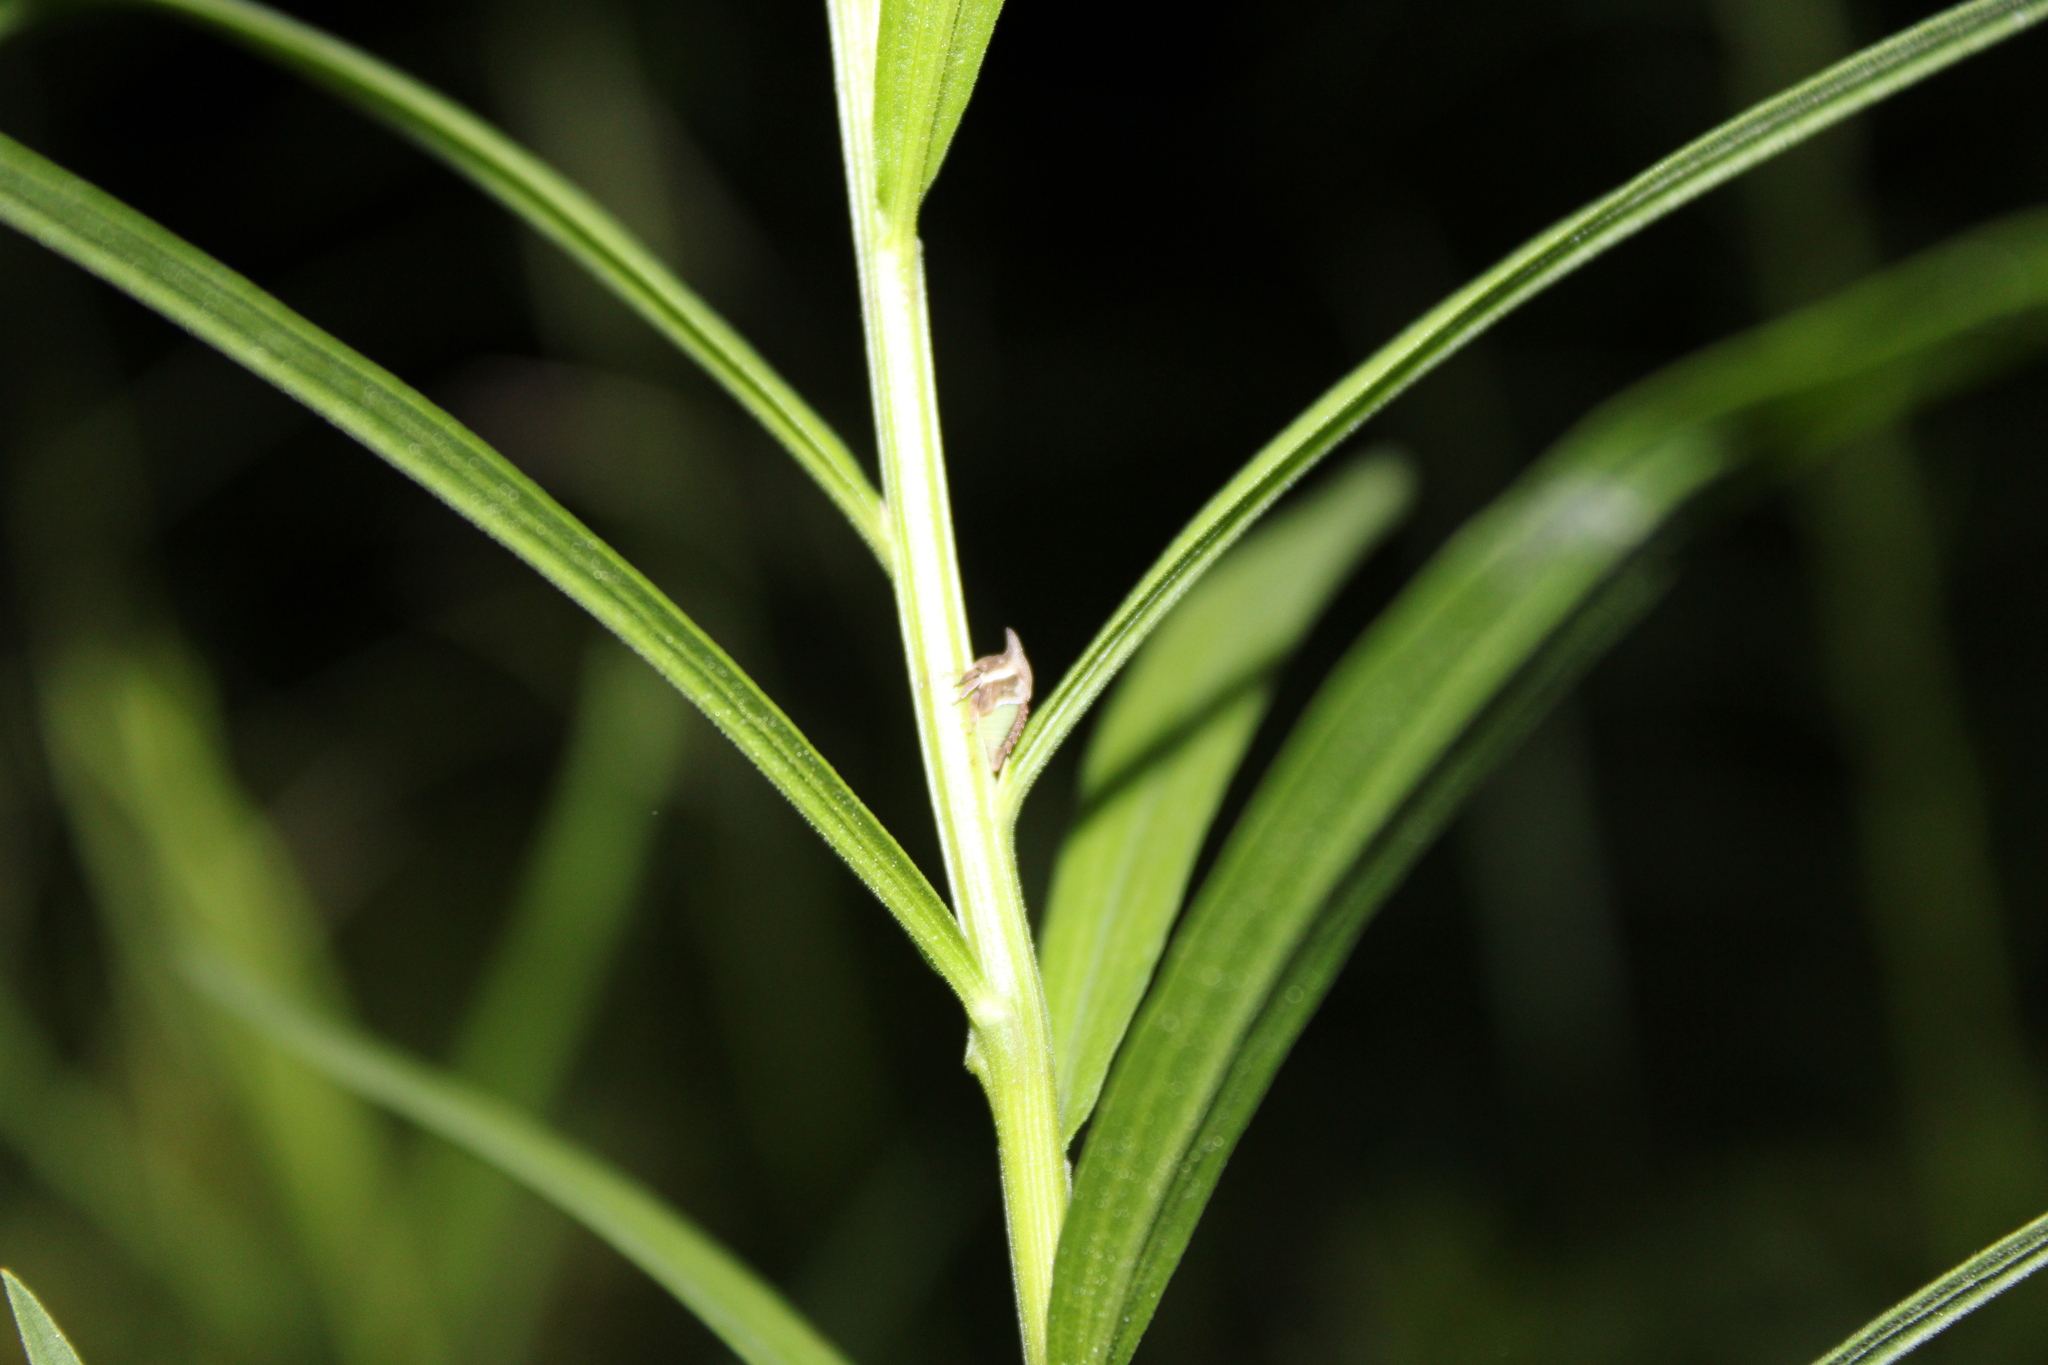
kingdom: Animalia
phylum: Arthropoda
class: Insecta
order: Hemiptera
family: Membracidae
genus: Enchenopa
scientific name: Enchenopa latipes
